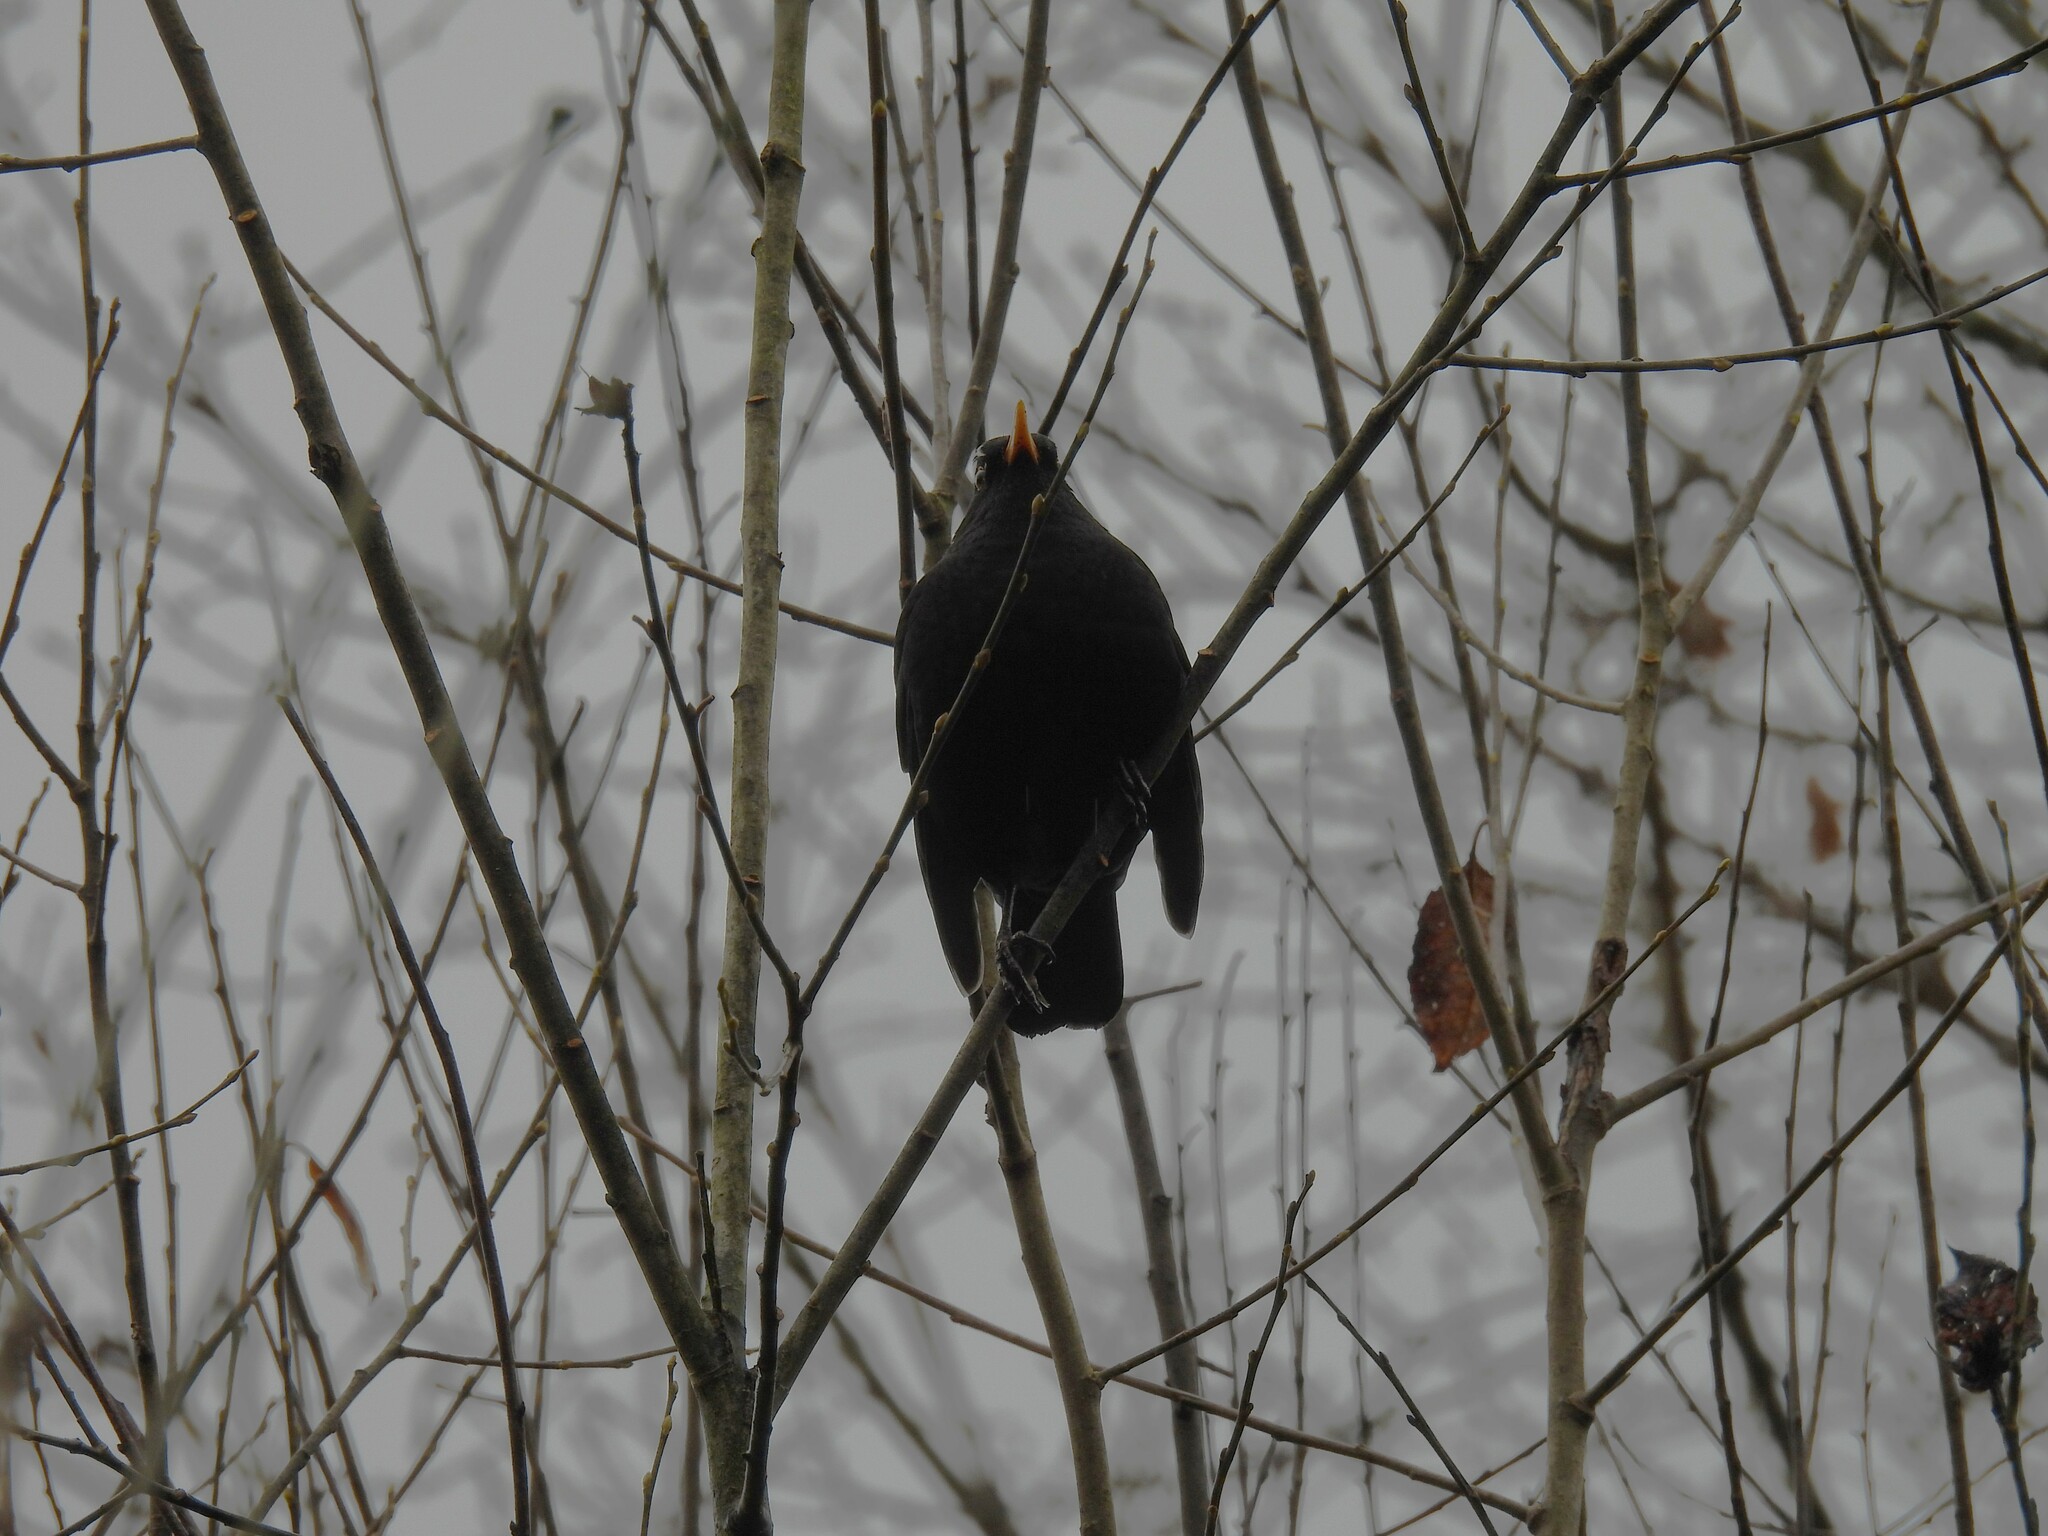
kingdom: Animalia
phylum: Chordata
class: Aves
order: Passeriformes
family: Turdidae
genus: Turdus
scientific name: Turdus merula
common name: Common blackbird
